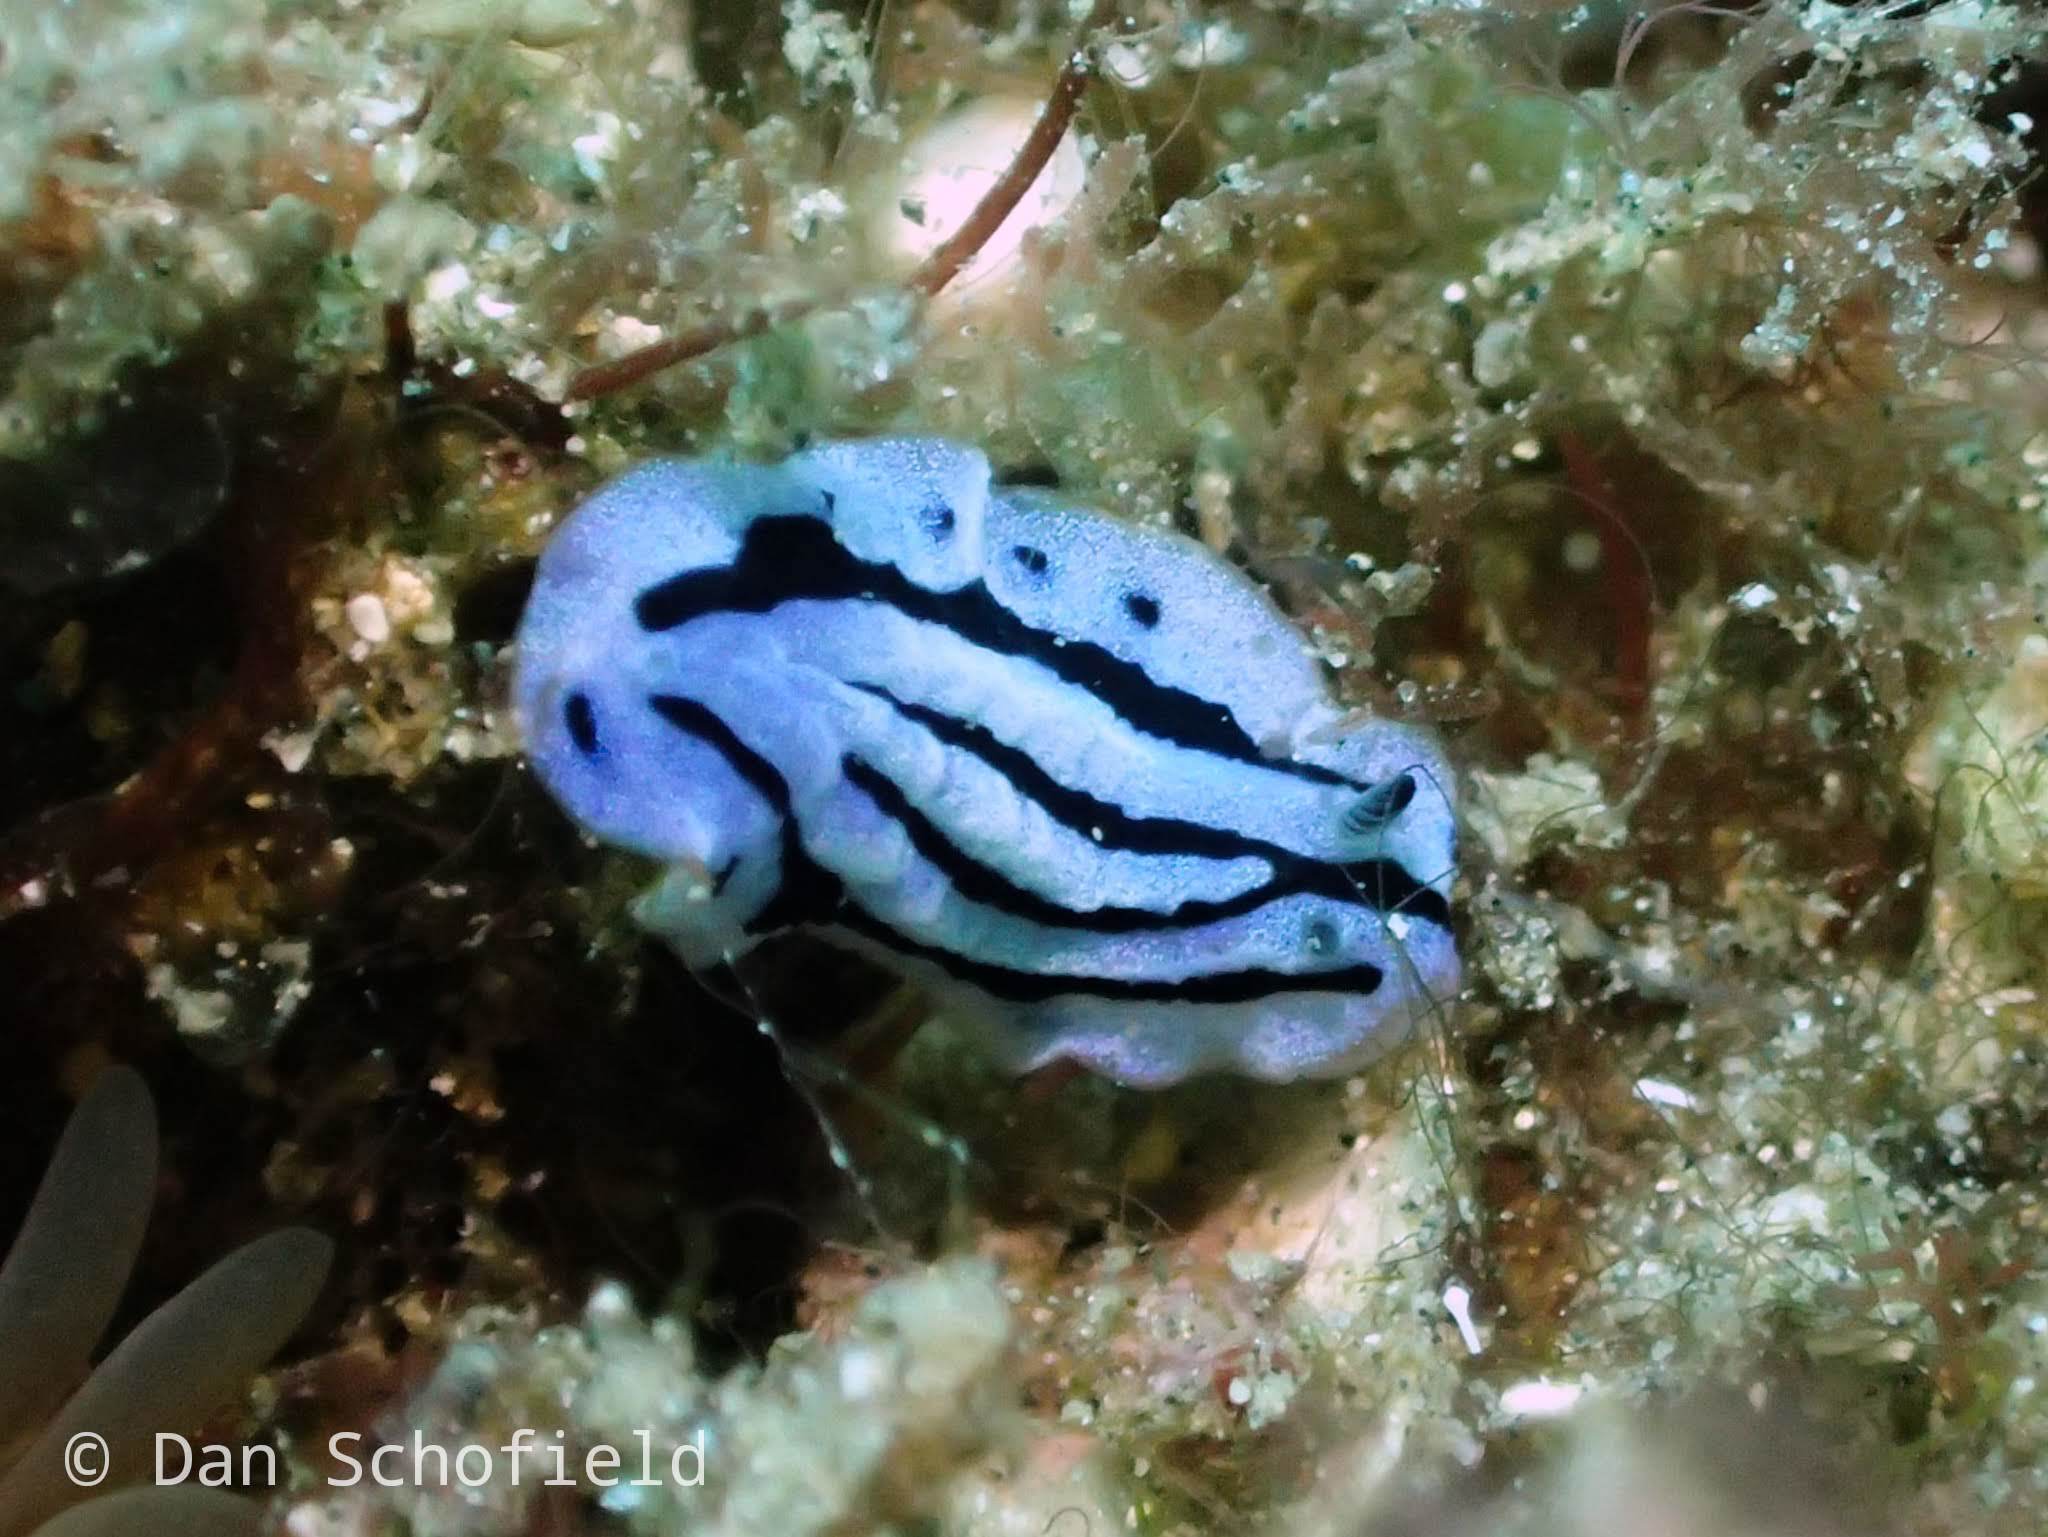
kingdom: Animalia
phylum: Mollusca
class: Gastropoda
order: Nudibranchia
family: Phyllidiidae
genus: Phyllidiopsis
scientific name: Phyllidiopsis annae
